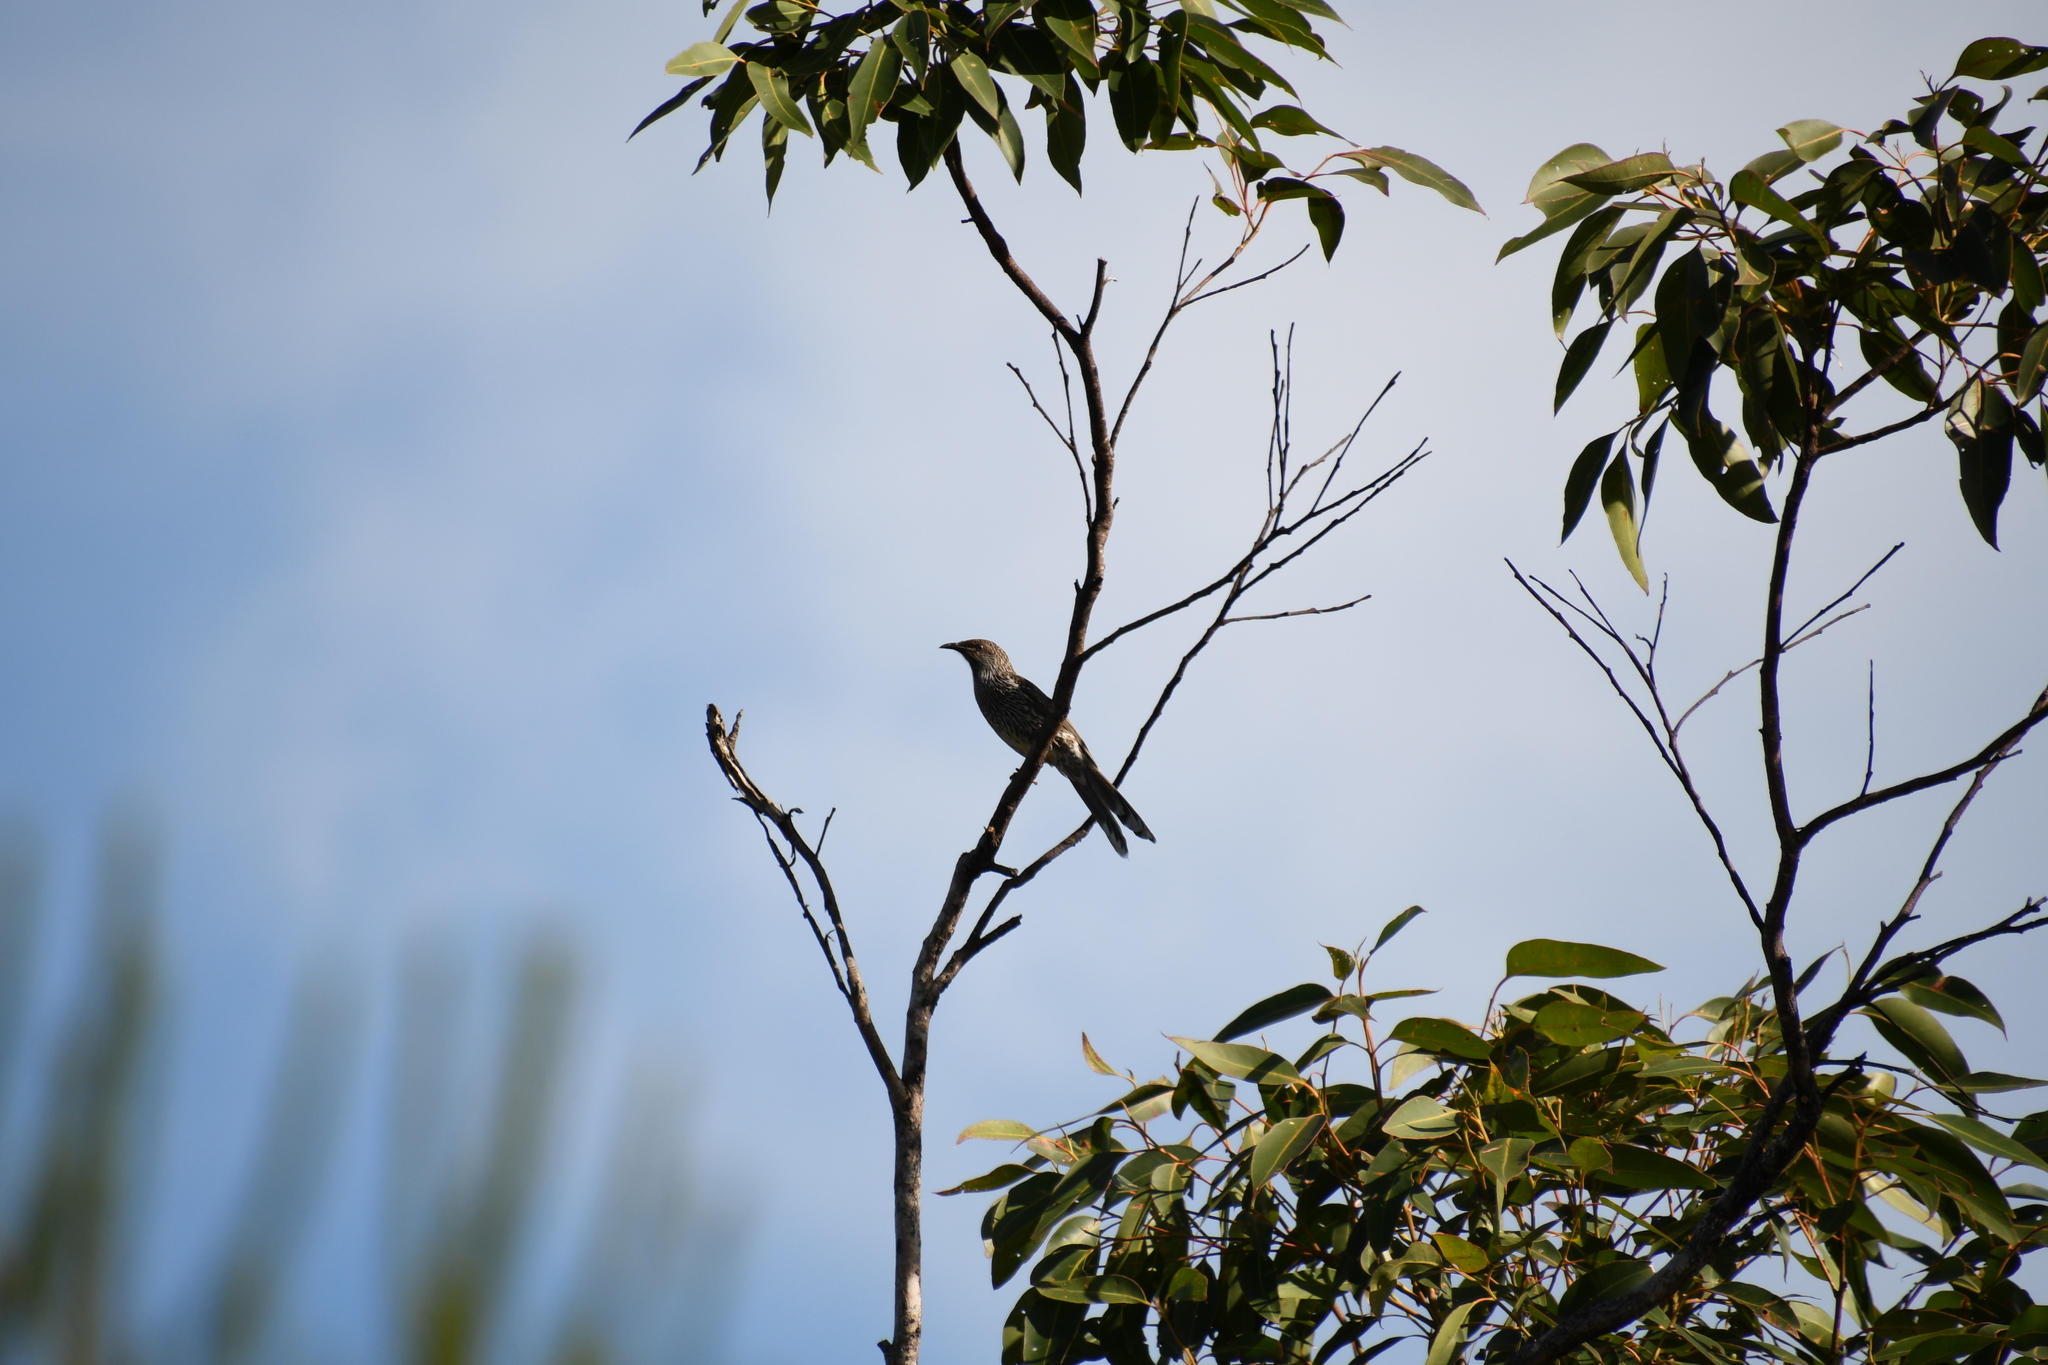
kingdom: Animalia
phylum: Chordata
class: Aves
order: Passeriformes
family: Meliphagidae
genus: Anthochaera
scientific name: Anthochaera chrysoptera
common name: Little wattlebird
